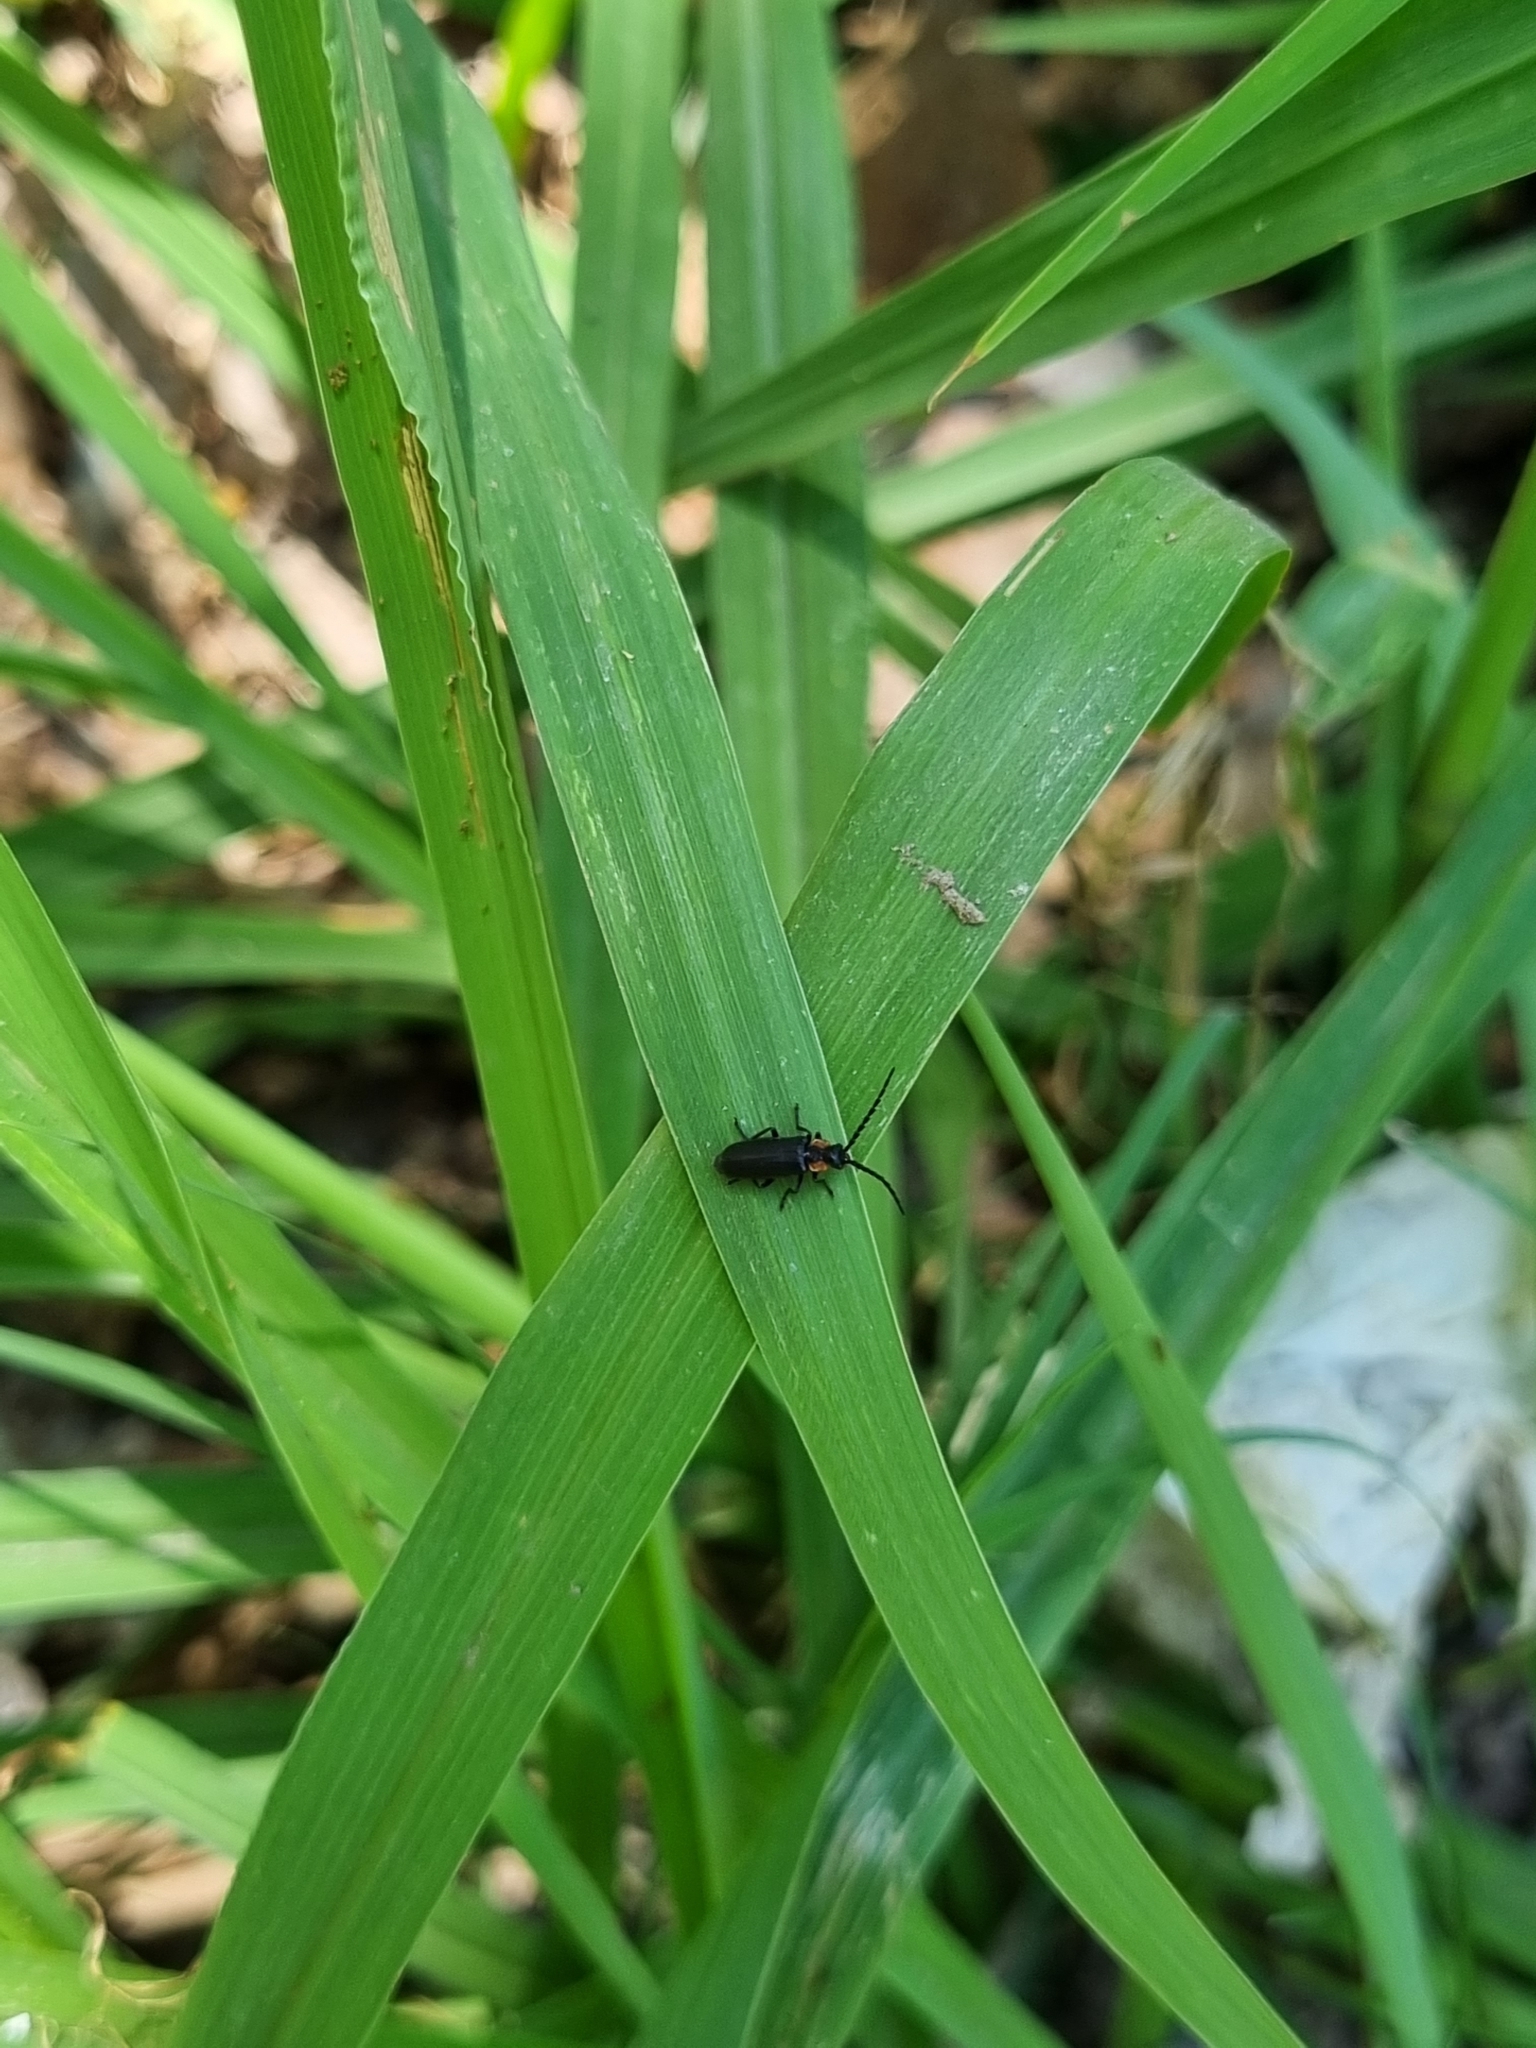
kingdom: Animalia
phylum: Arthropoda
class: Insecta
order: Coleoptera
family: Cantharidae
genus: Polemius
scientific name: Polemius
